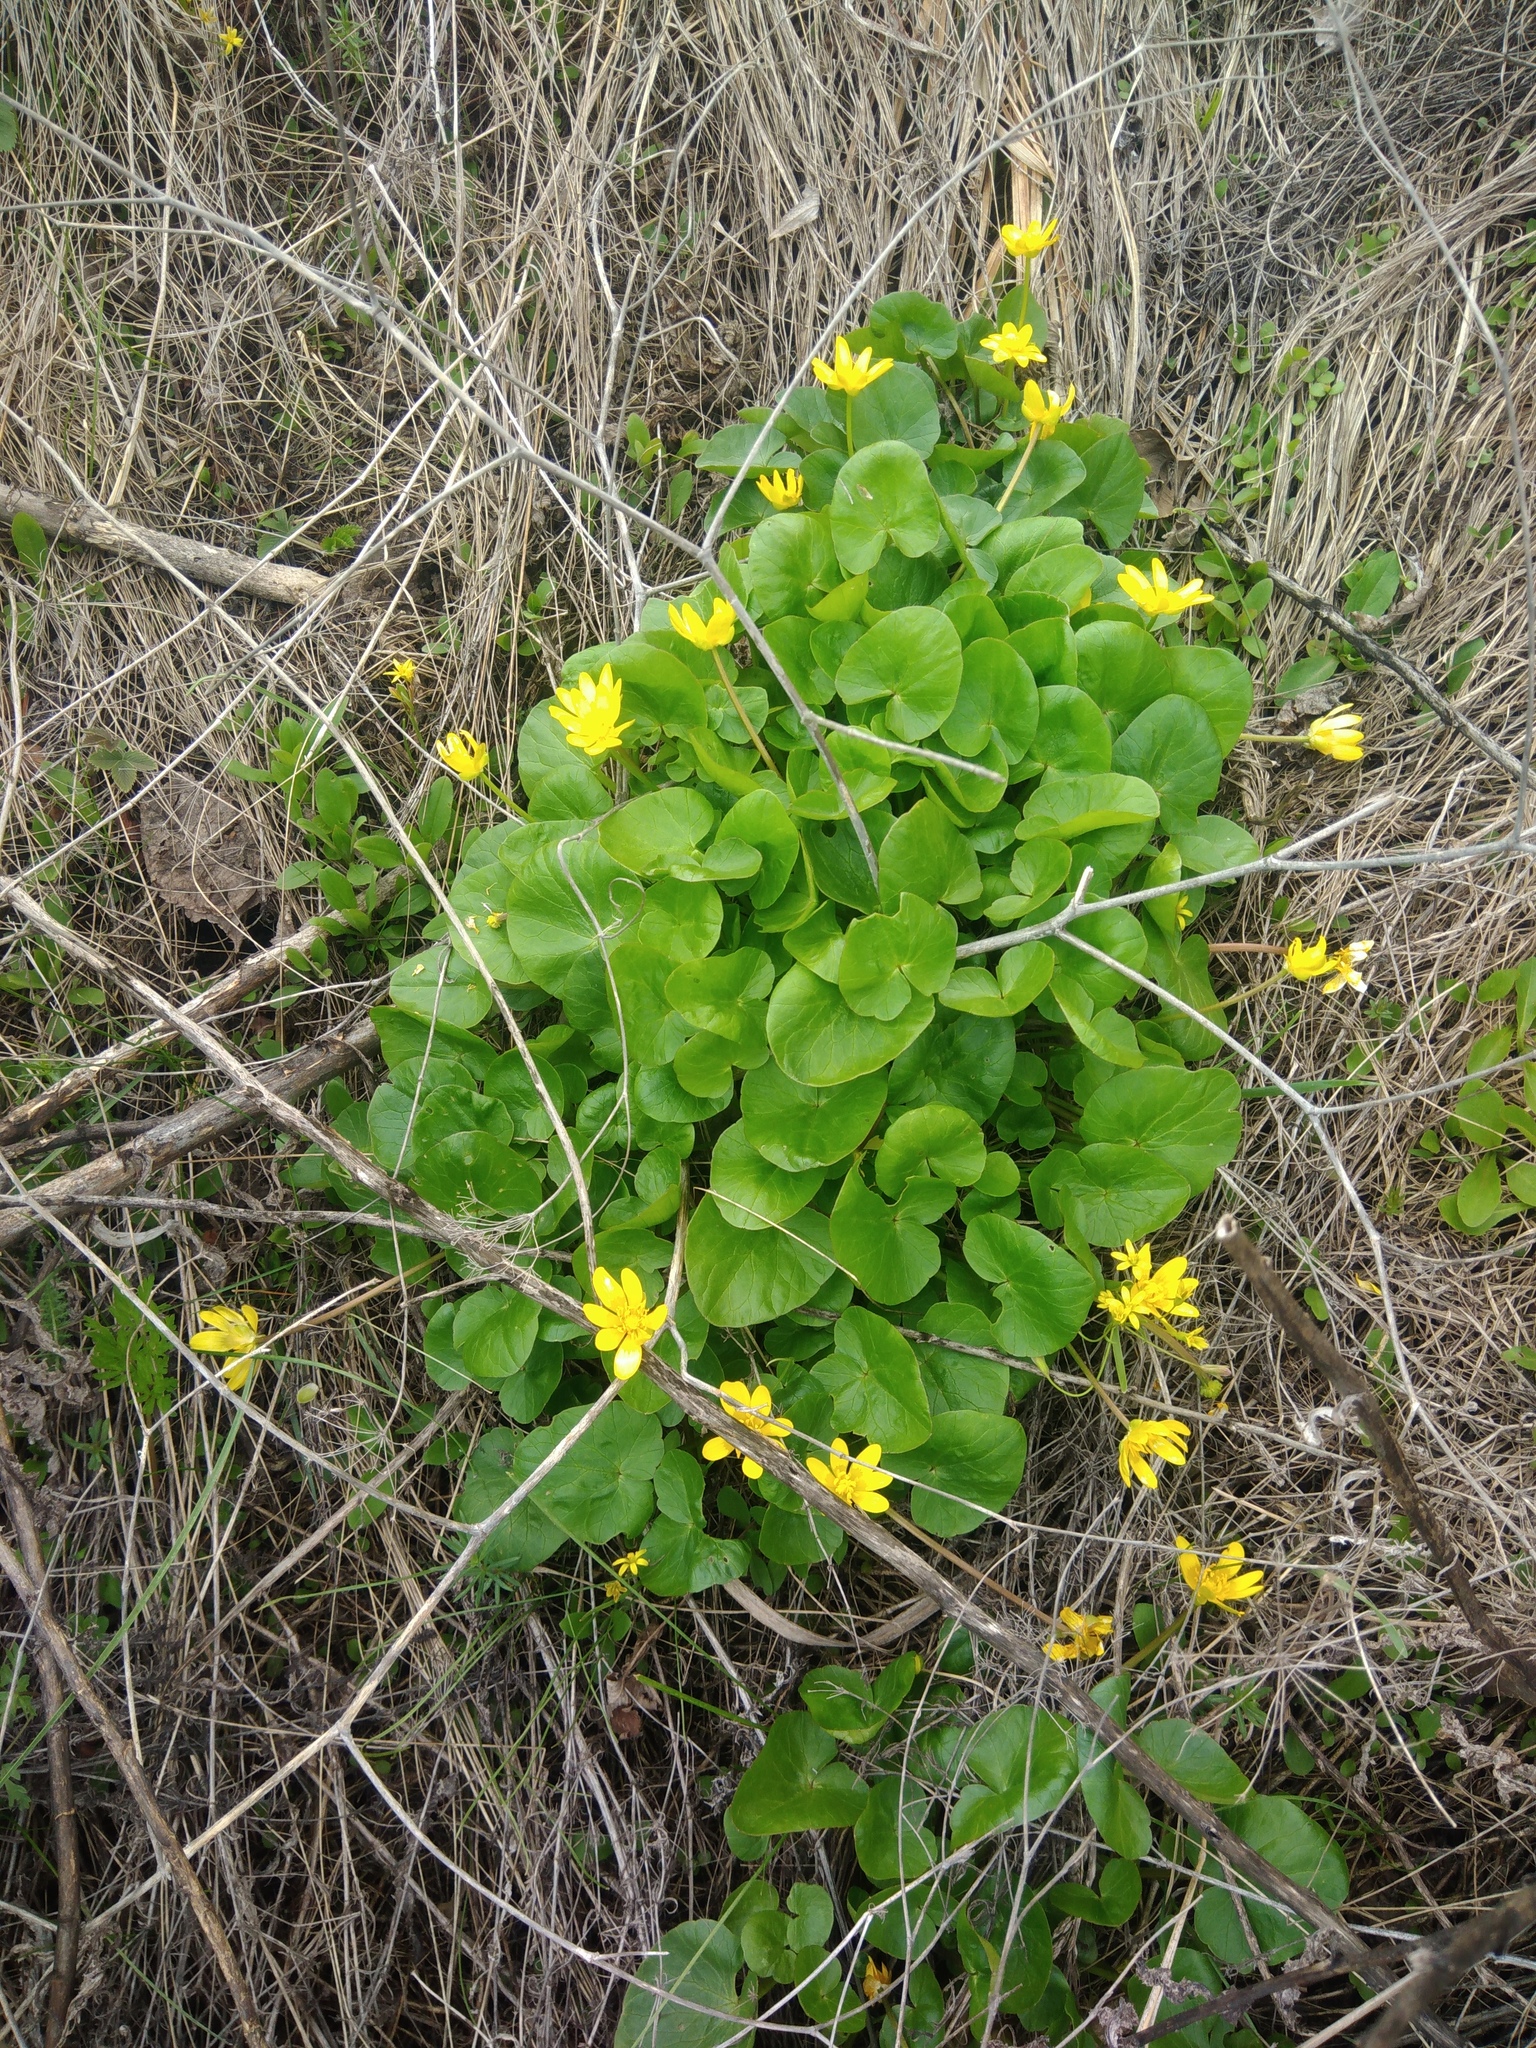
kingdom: Plantae
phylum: Tracheophyta
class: Magnoliopsida
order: Ranunculales
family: Ranunculaceae
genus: Ficaria
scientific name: Ficaria verna
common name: Lesser celandine
